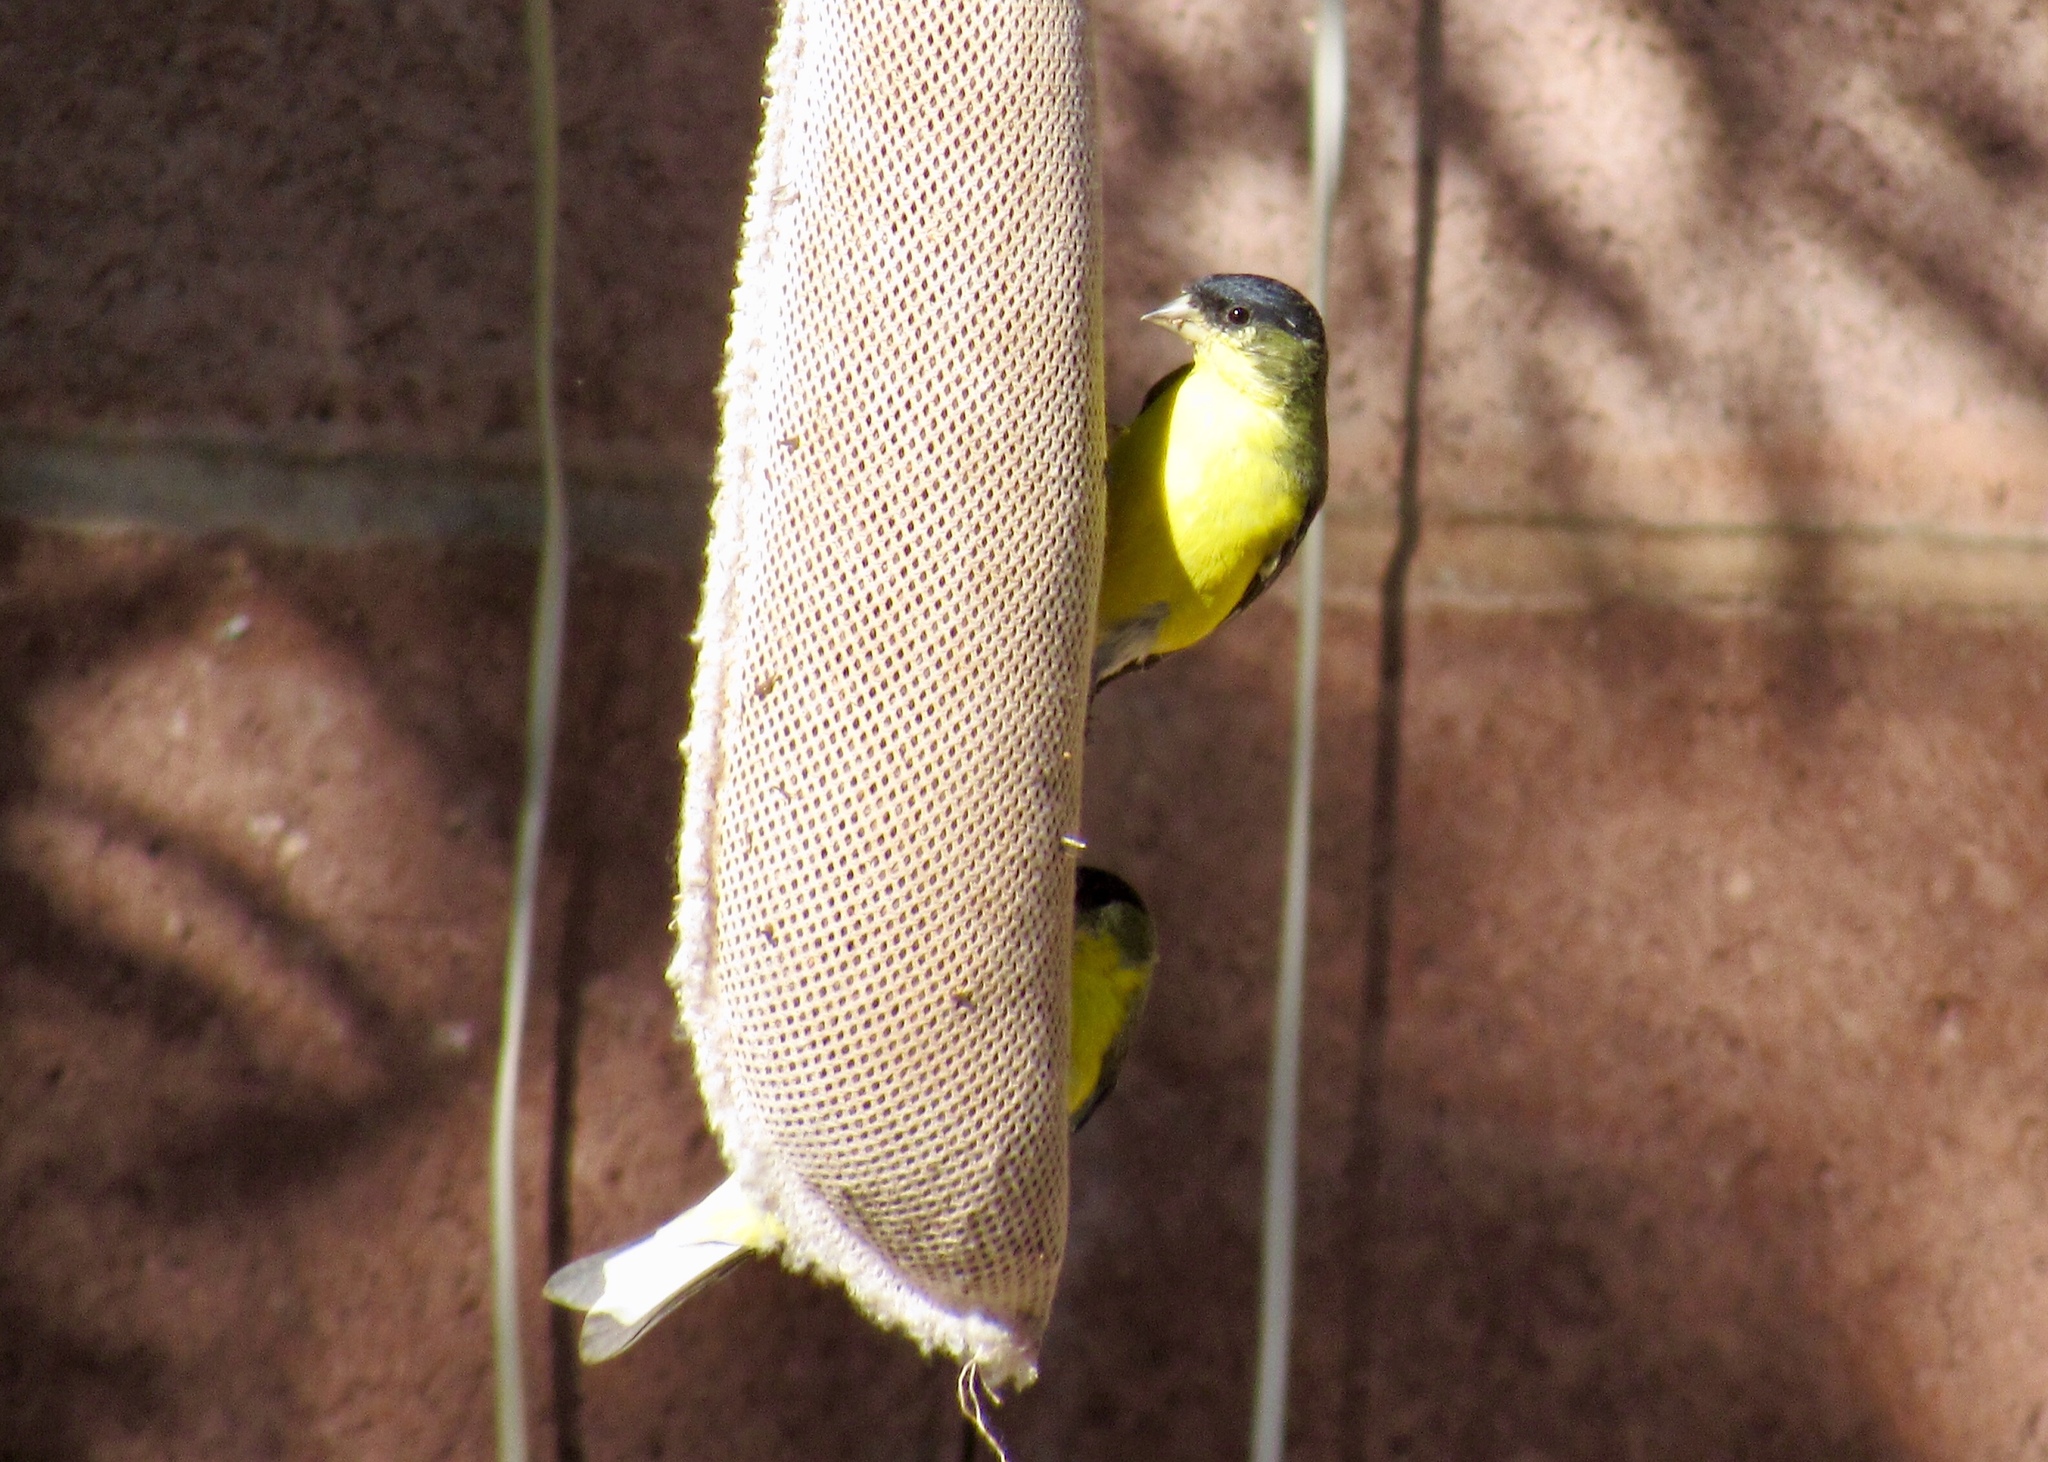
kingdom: Animalia
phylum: Chordata
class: Aves
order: Passeriformes
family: Fringillidae
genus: Spinus
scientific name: Spinus psaltria
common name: Lesser goldfinch
